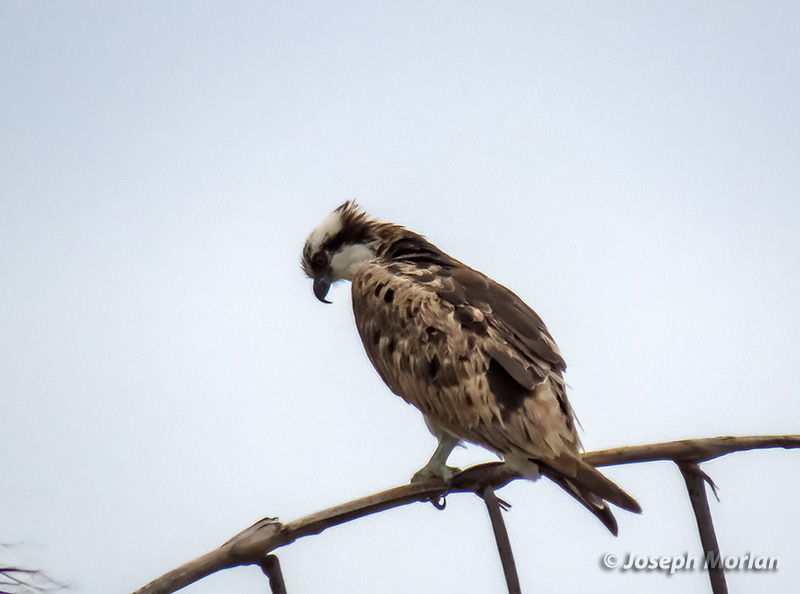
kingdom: Animalia
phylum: Chordata
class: Aves
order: Accipitriformes
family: Pandionidae
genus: Pandion
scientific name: Pandion haliaetus
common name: Osprey
